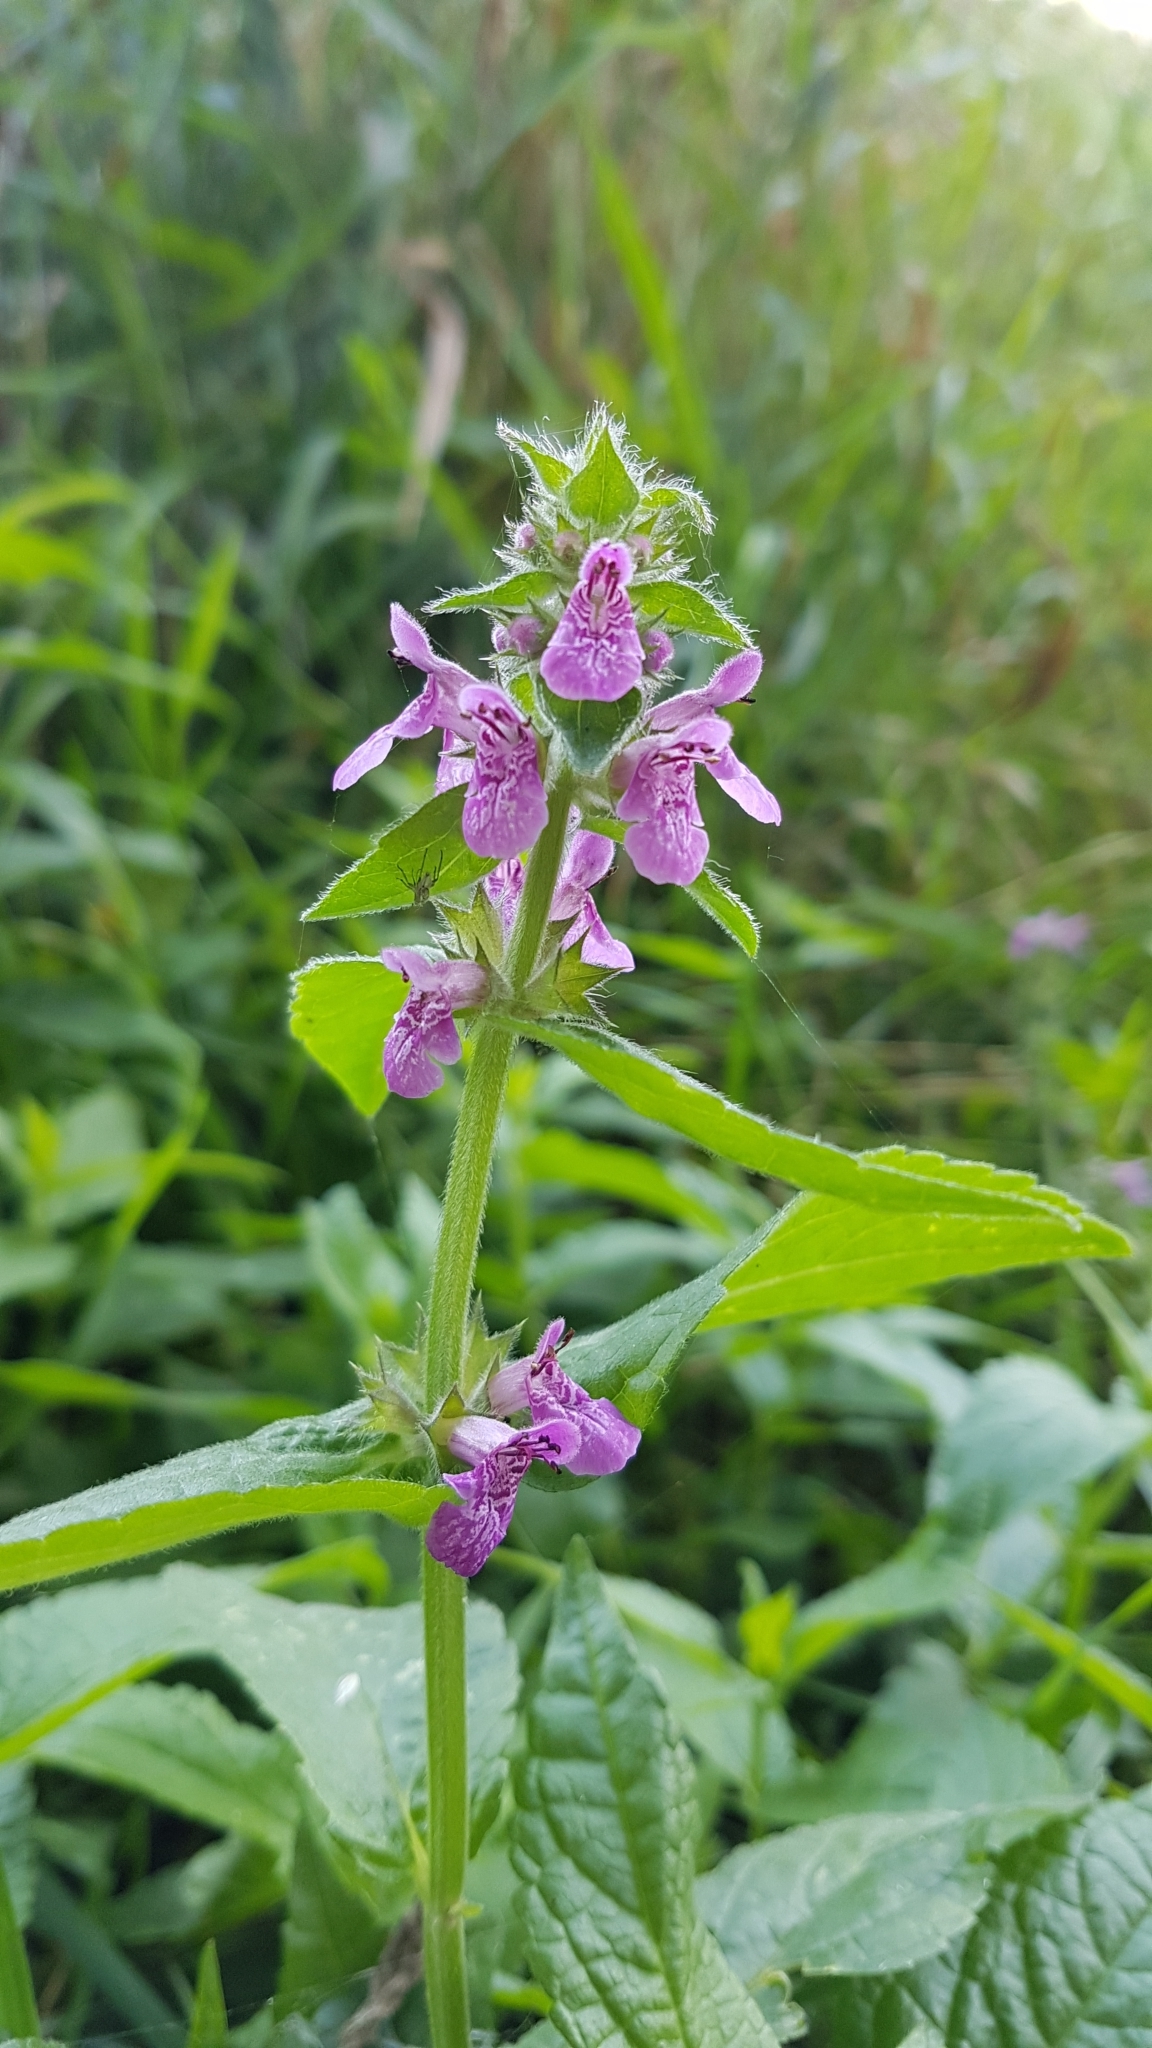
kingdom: Plantae
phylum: Tracheophyta
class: Magnoliopsida
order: Lamiales
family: Lamiaceae
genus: Stachys
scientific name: Stachys palustris
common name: Marsh woundwort
